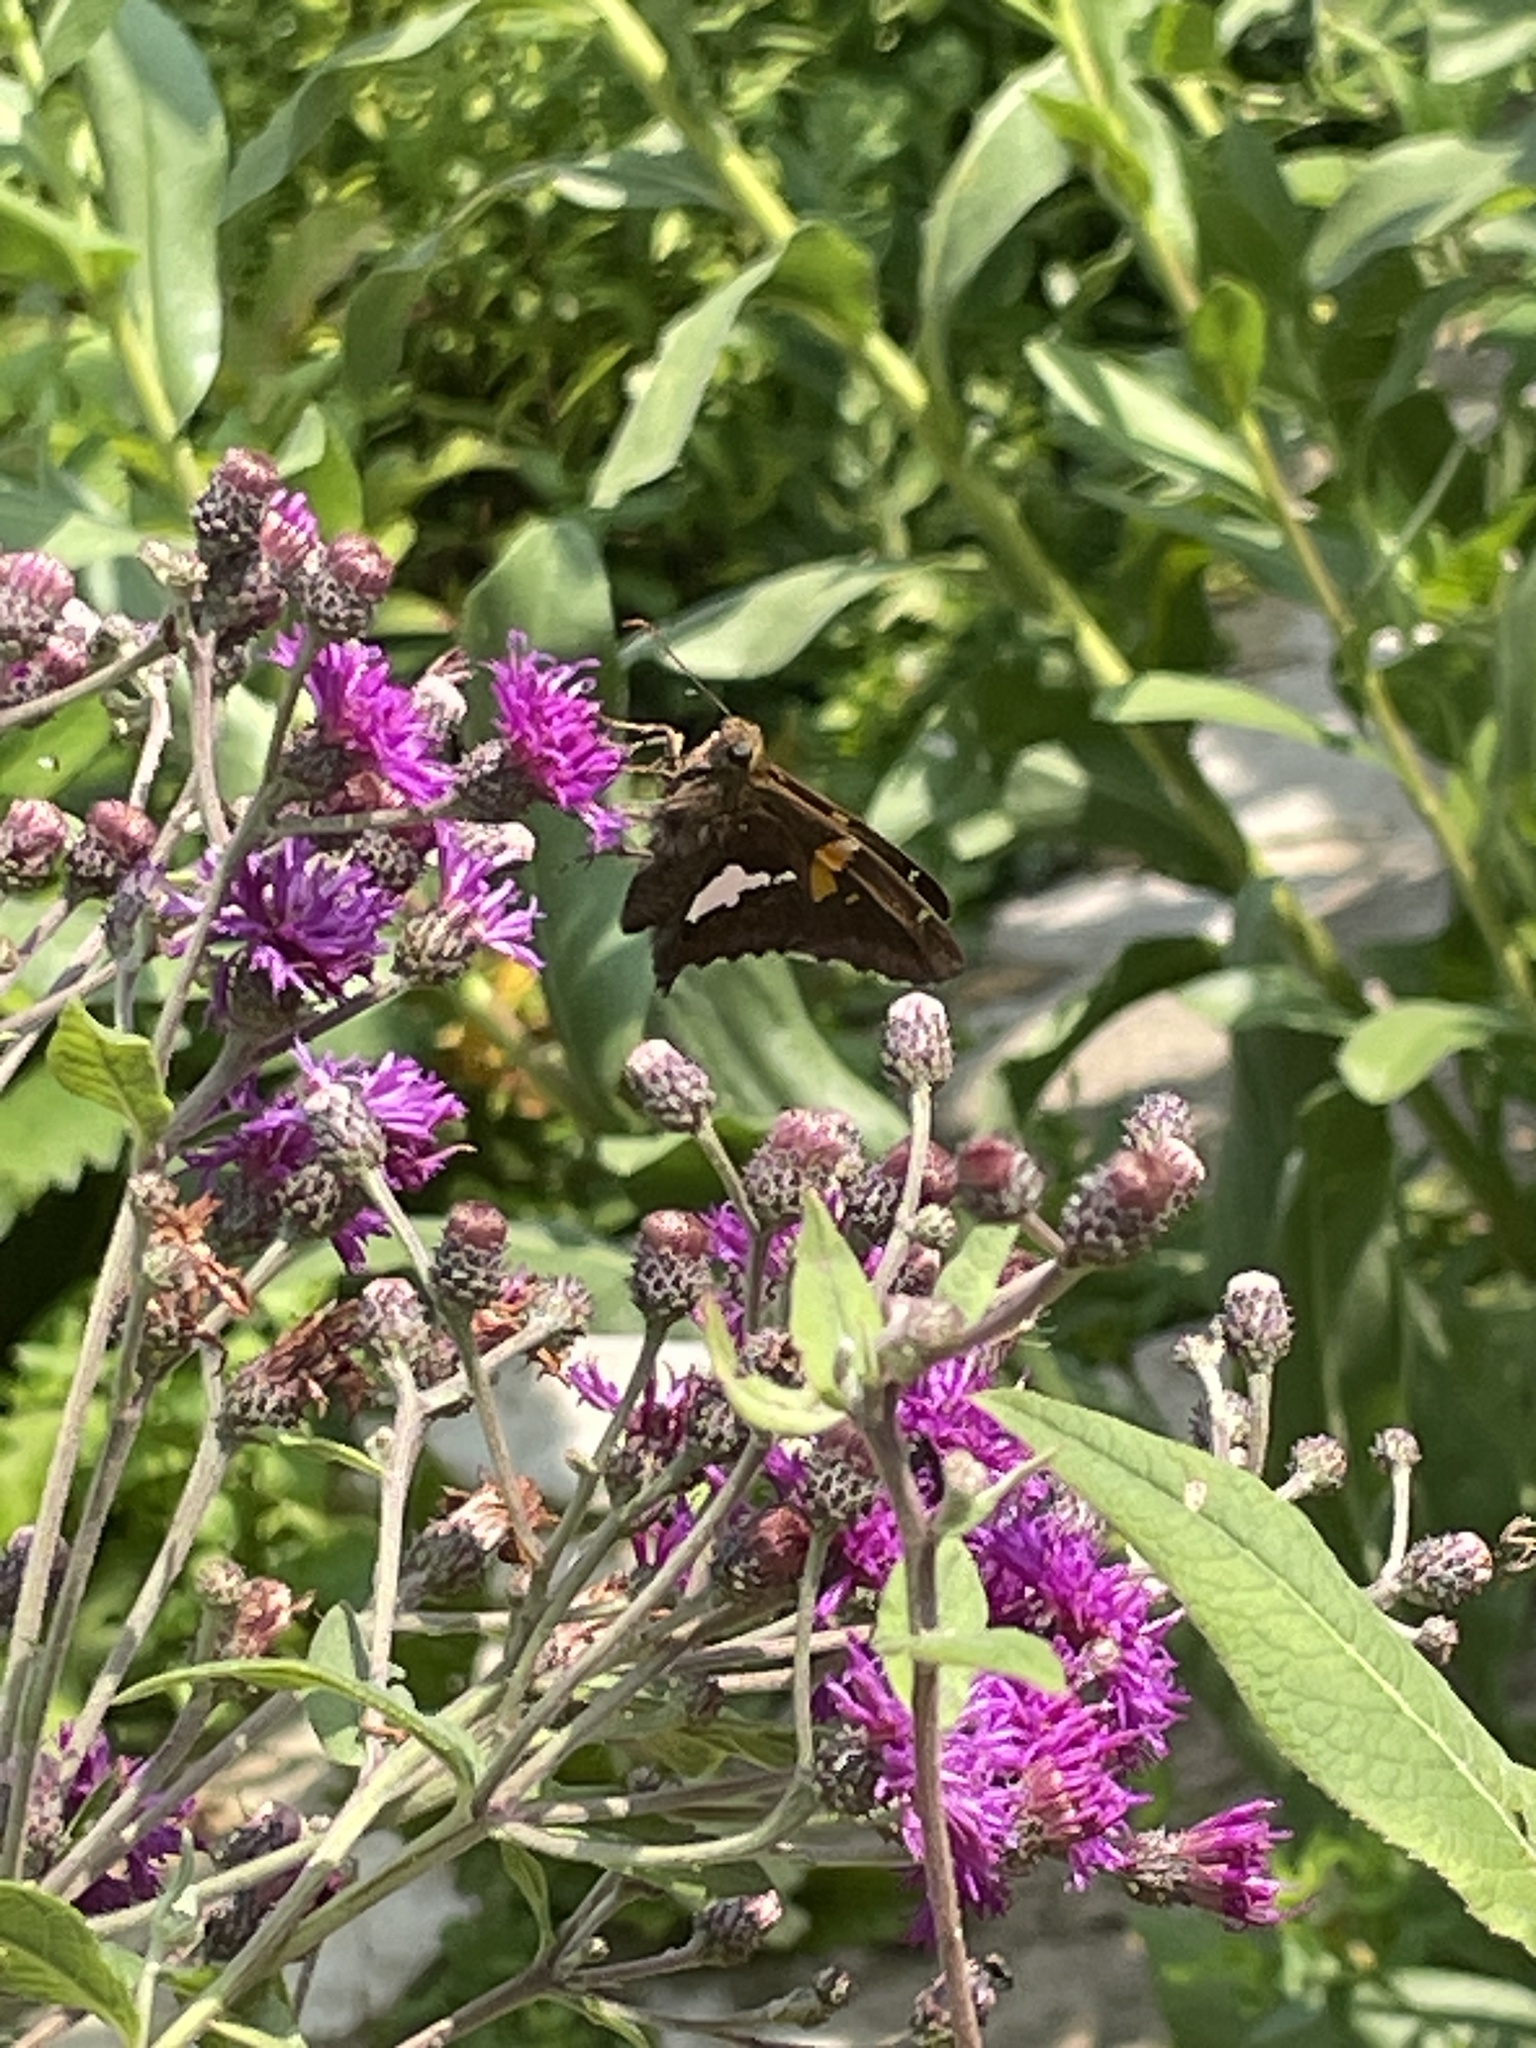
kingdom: Animalia
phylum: Arthropoda
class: Insecta
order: Lepidoptera
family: Hesperiidae
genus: Epargyreus
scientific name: Epargyreus clarus
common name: Silver-spotted skipper
